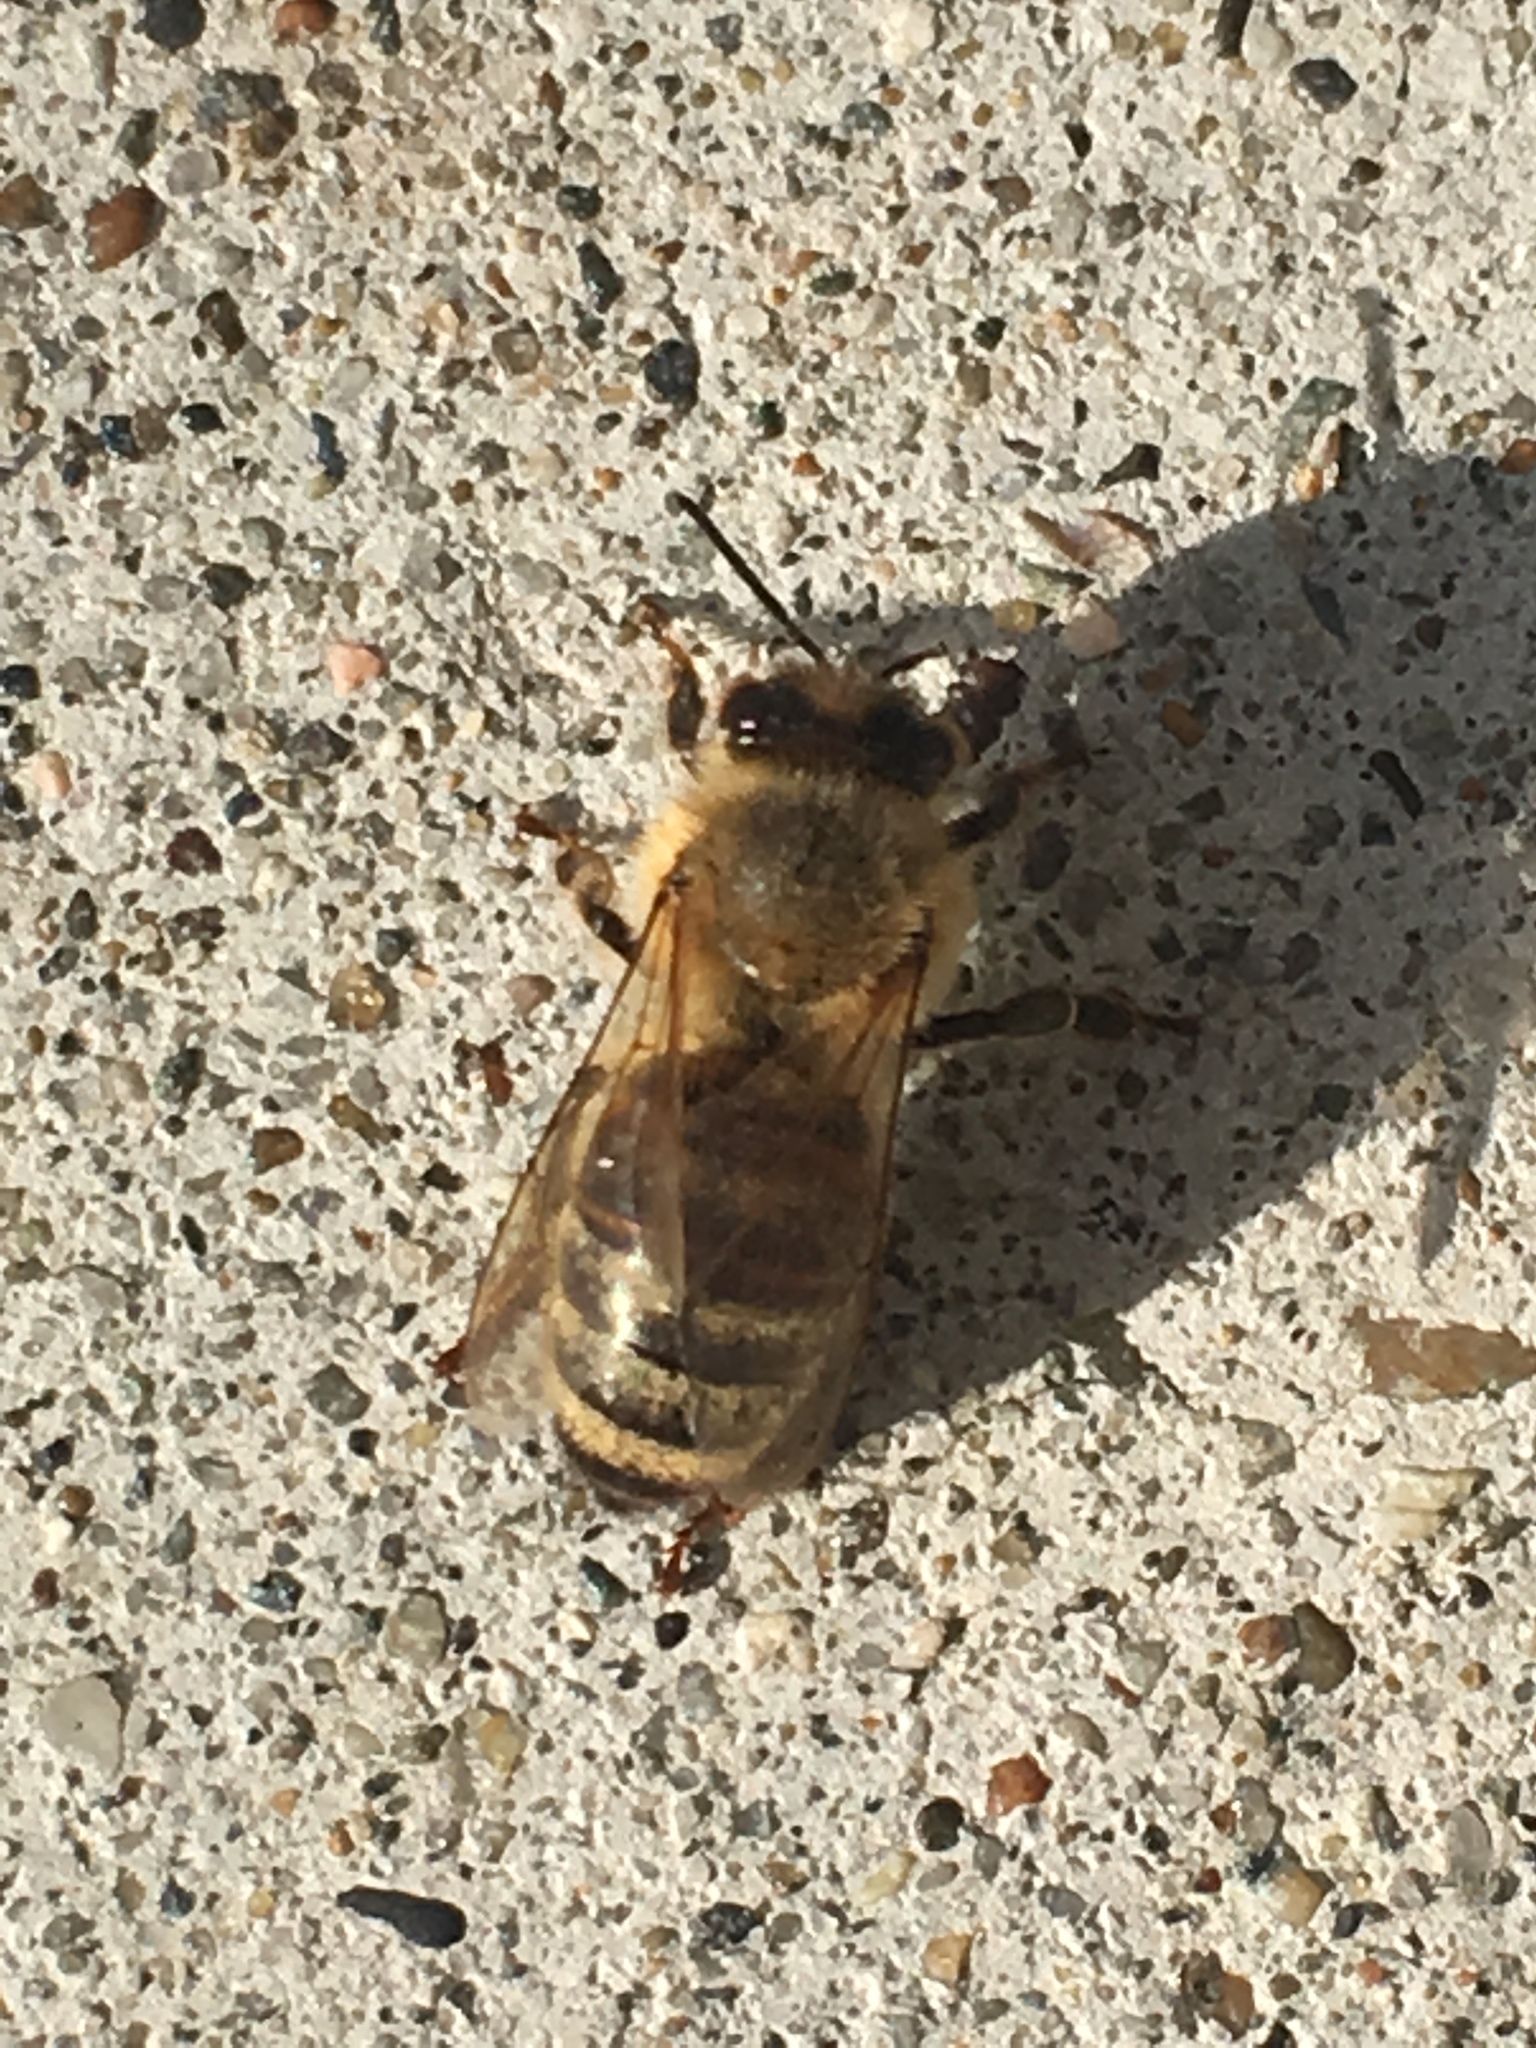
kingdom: Animalia
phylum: Arthropoda
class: Insecta
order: Hymenoptera
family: Apidae
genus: Apis
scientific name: Apis mellifera
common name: Honey bee
